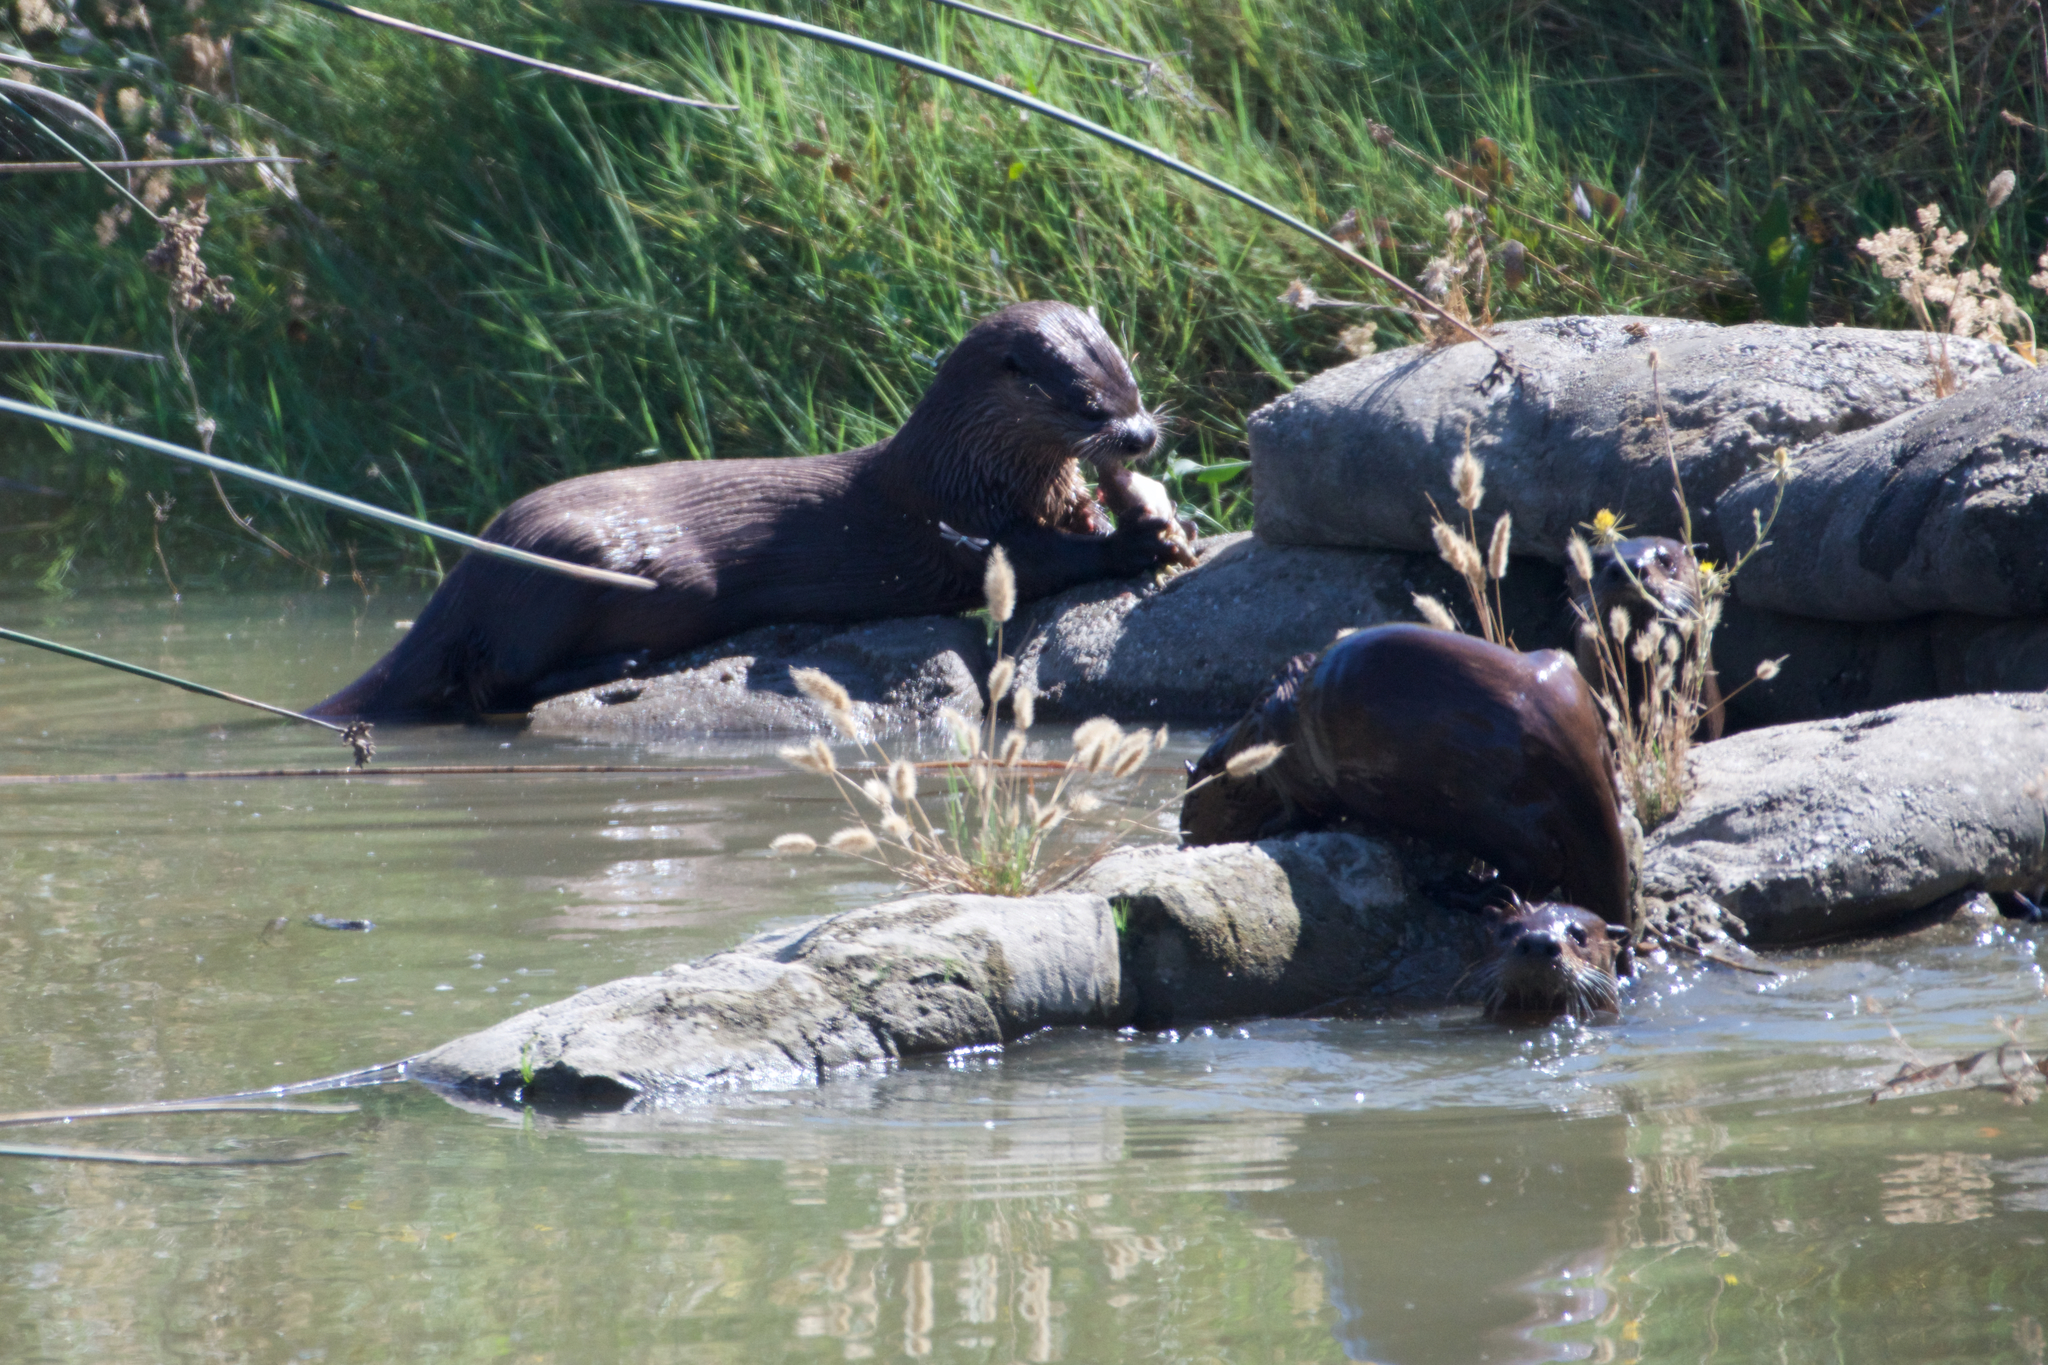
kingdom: Animalia
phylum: Chordata
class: Mammalia
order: Carnivora
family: Mustelidae
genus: Lontra
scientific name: Lontra canadensis
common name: North american river otter
